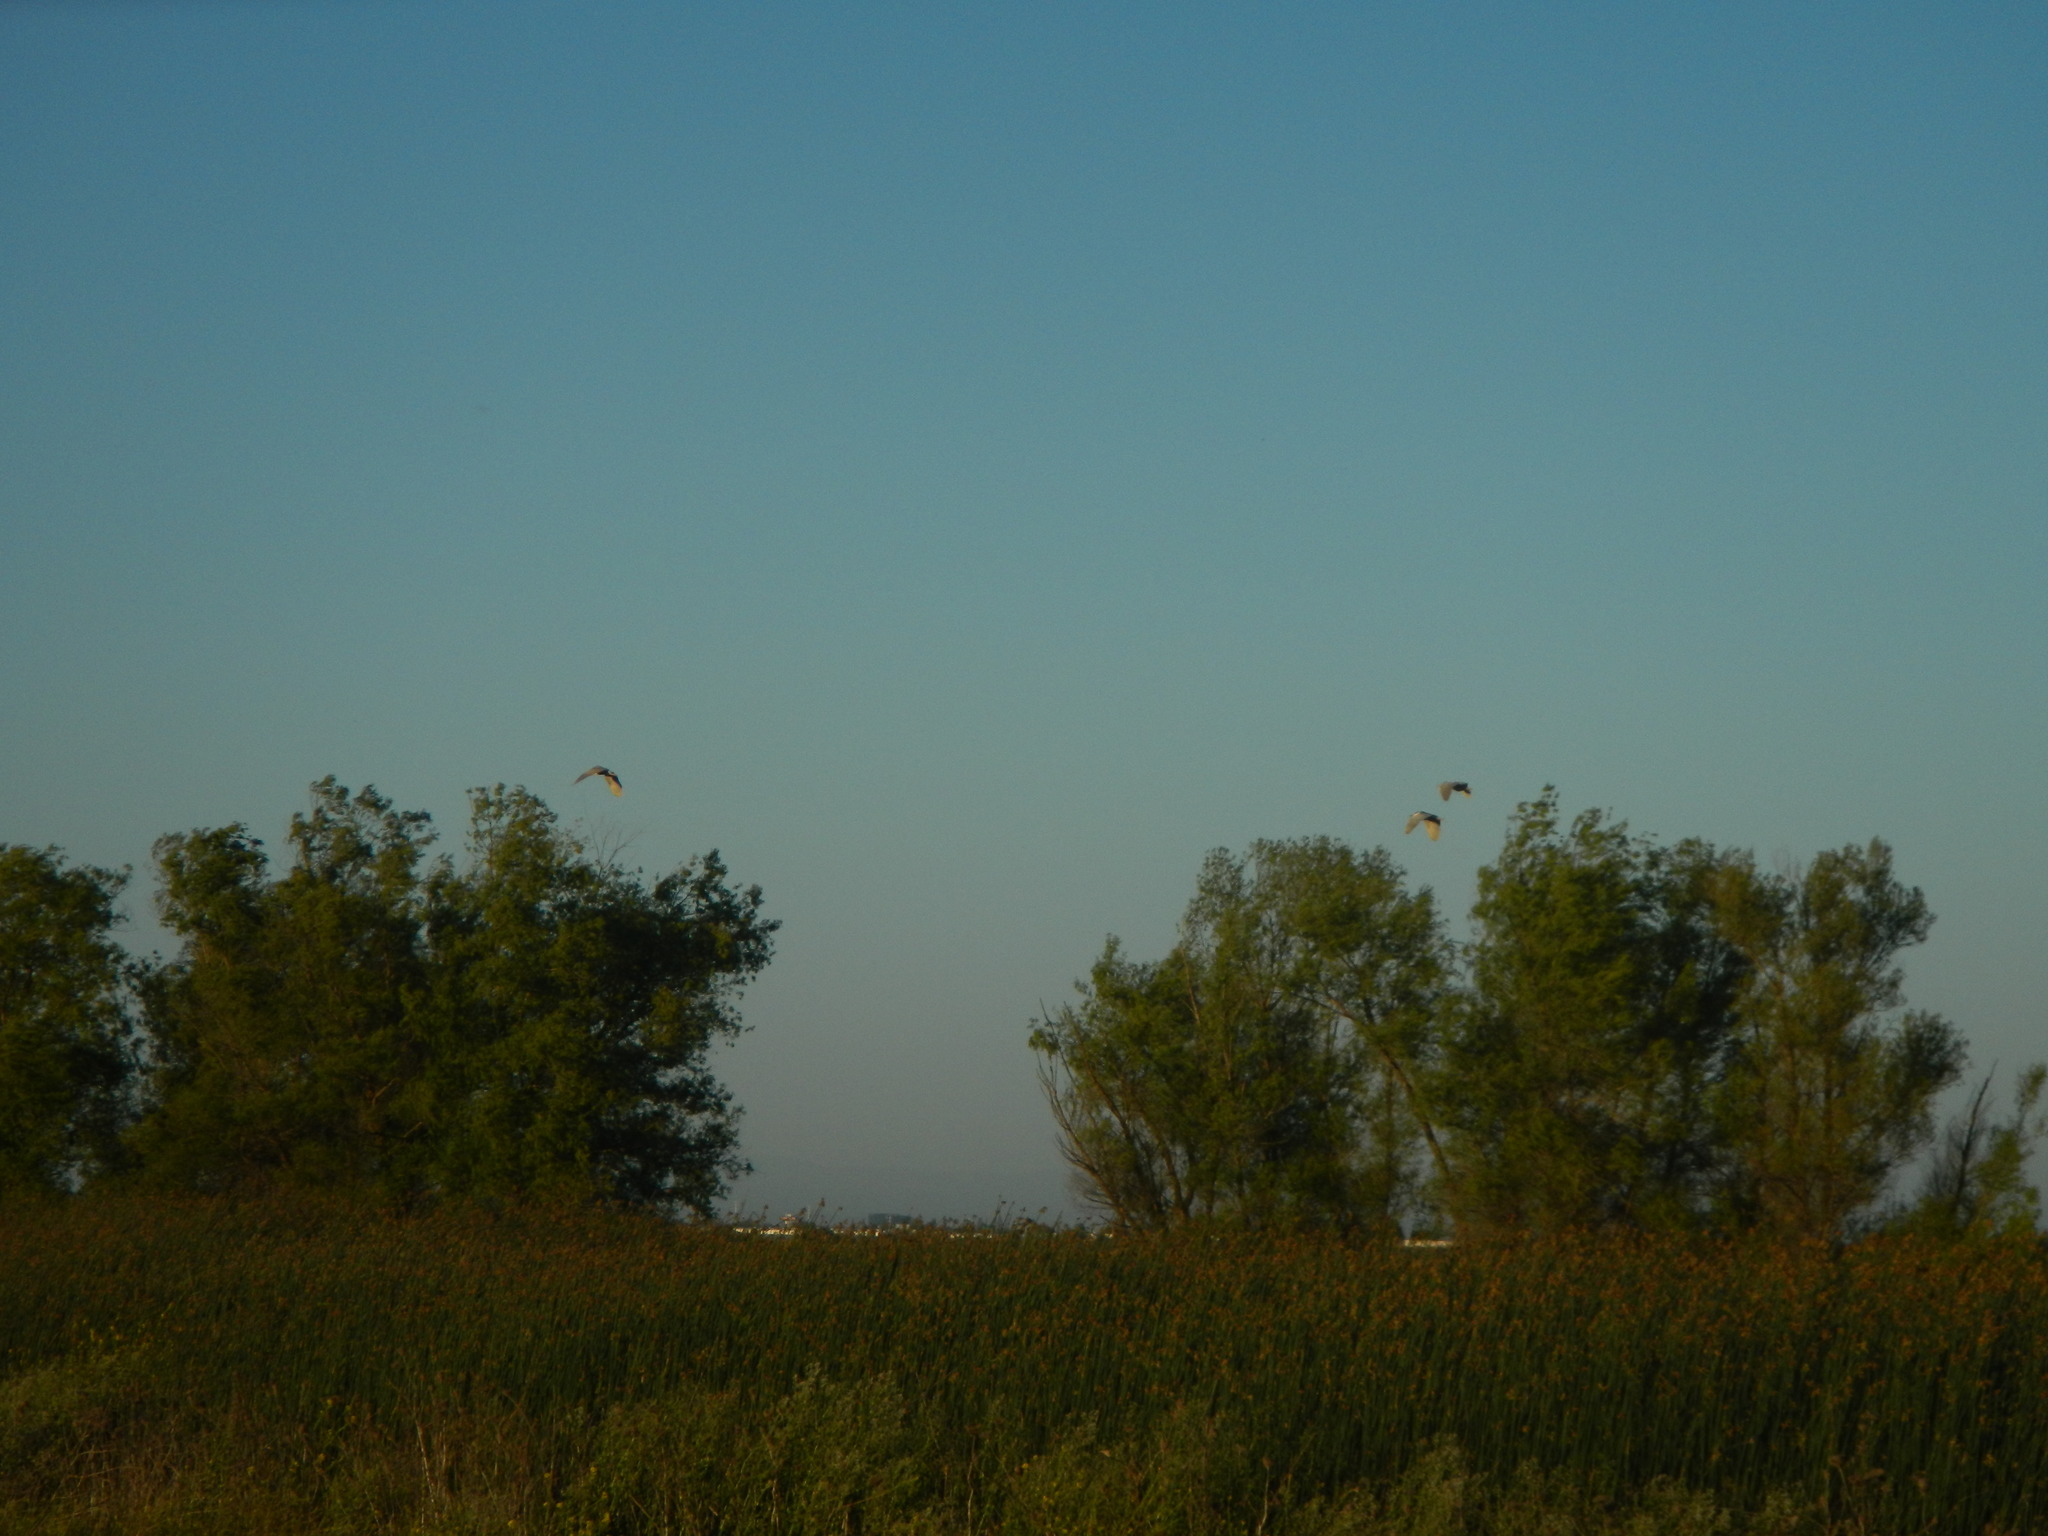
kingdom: Animalia
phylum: Chordata
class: Aves
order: Pelecaniformes
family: Ardeidae
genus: Nycticorax
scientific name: Nycticorax nycticorax
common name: Black-crowned night heron
